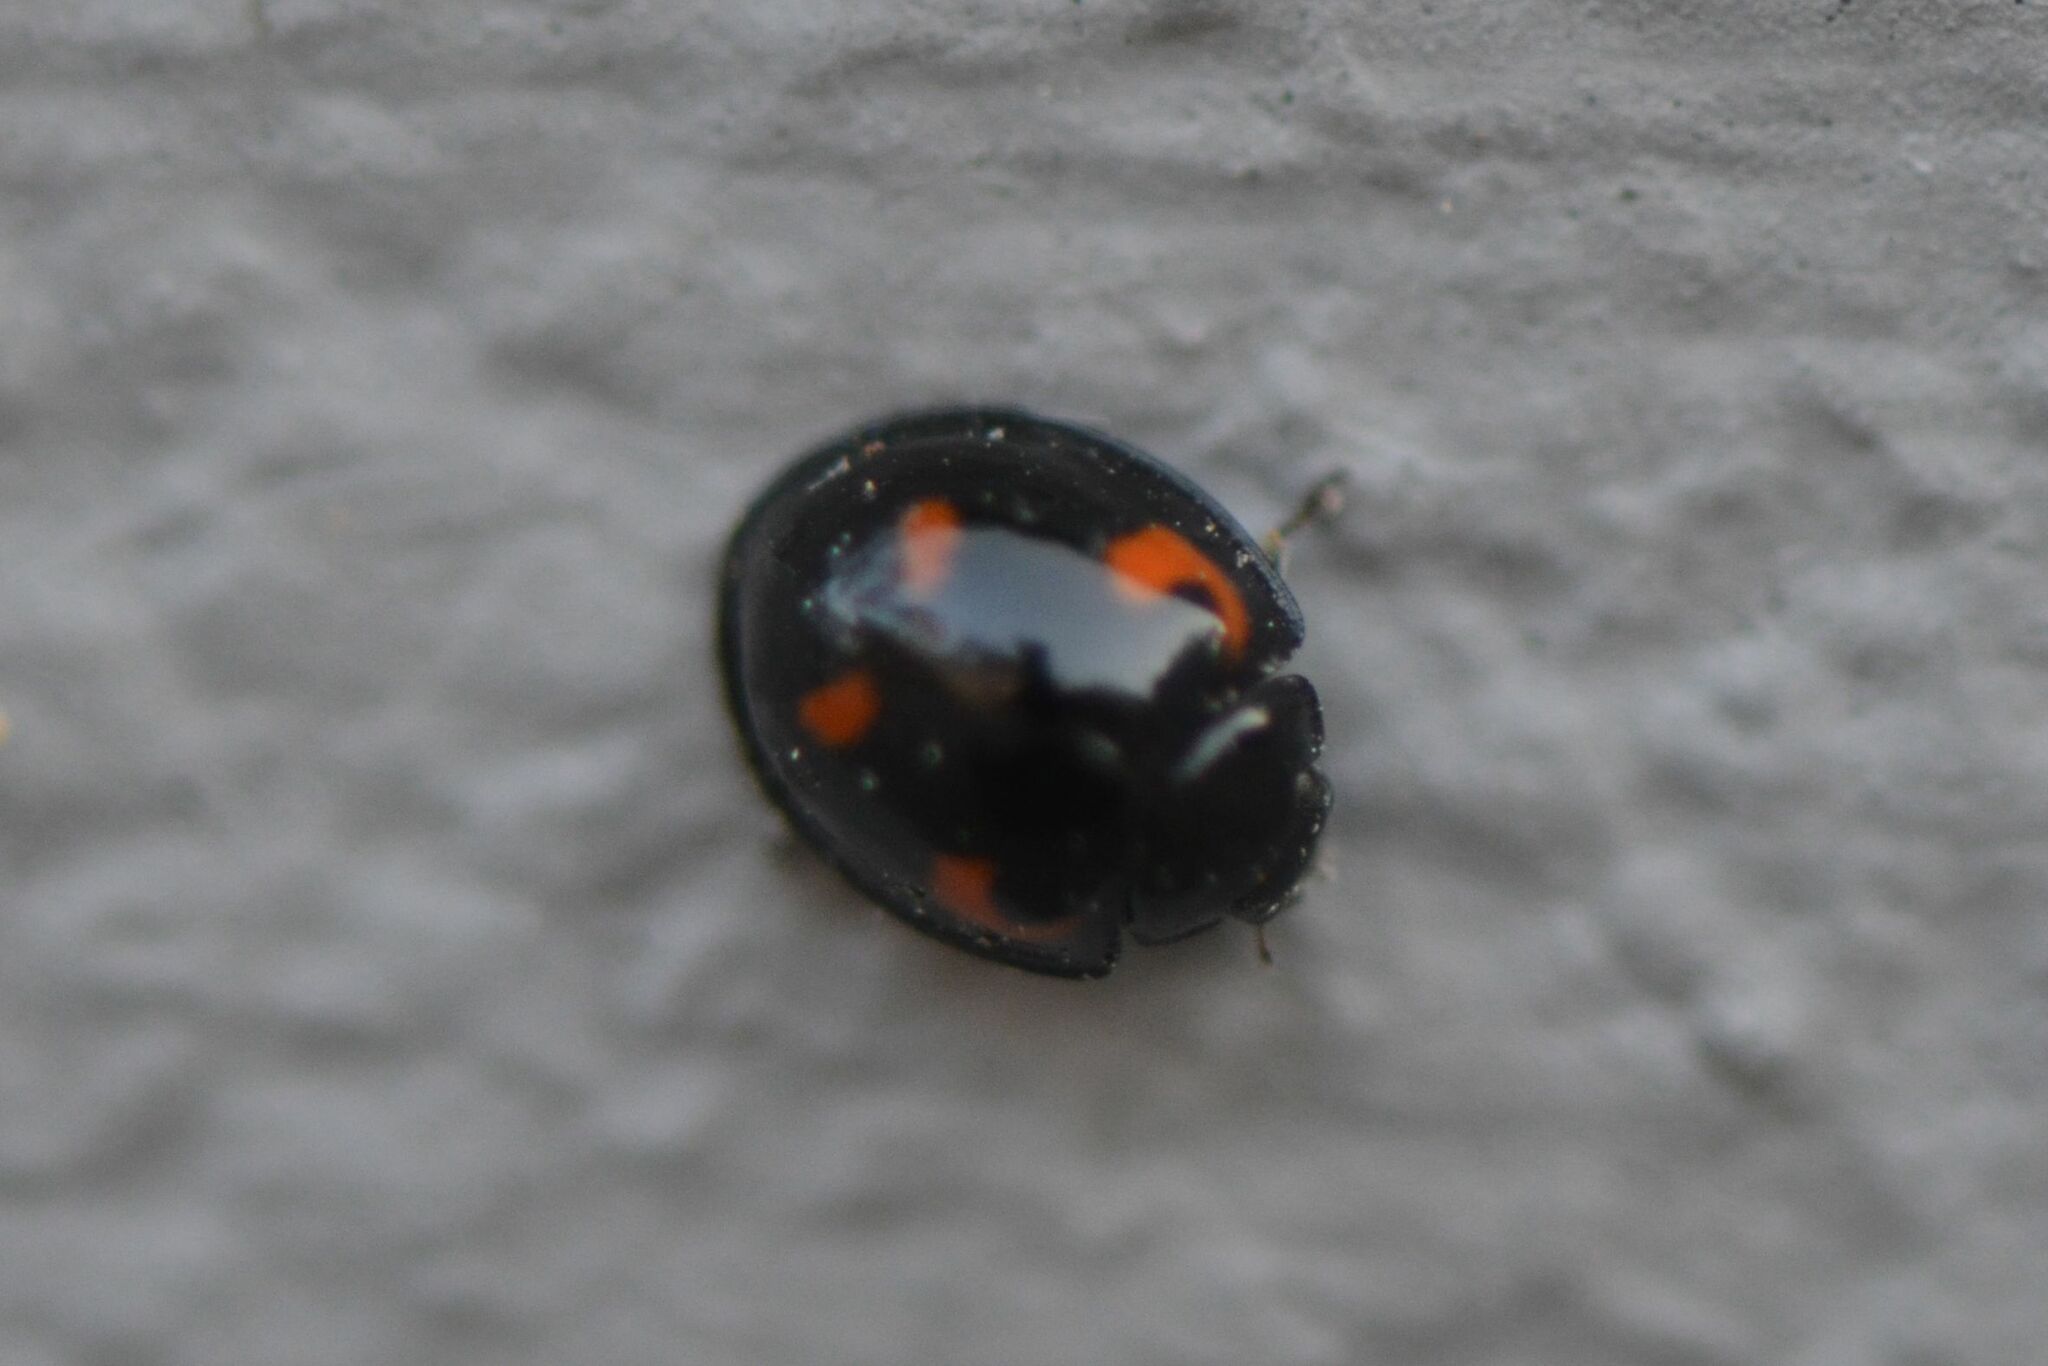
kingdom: Animalia
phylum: Arthropoda
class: Insecta
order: Coleoptera
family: Coccinellidae
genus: Brumus
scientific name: Brumus quadripustulatus
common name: Ladybird beetle
